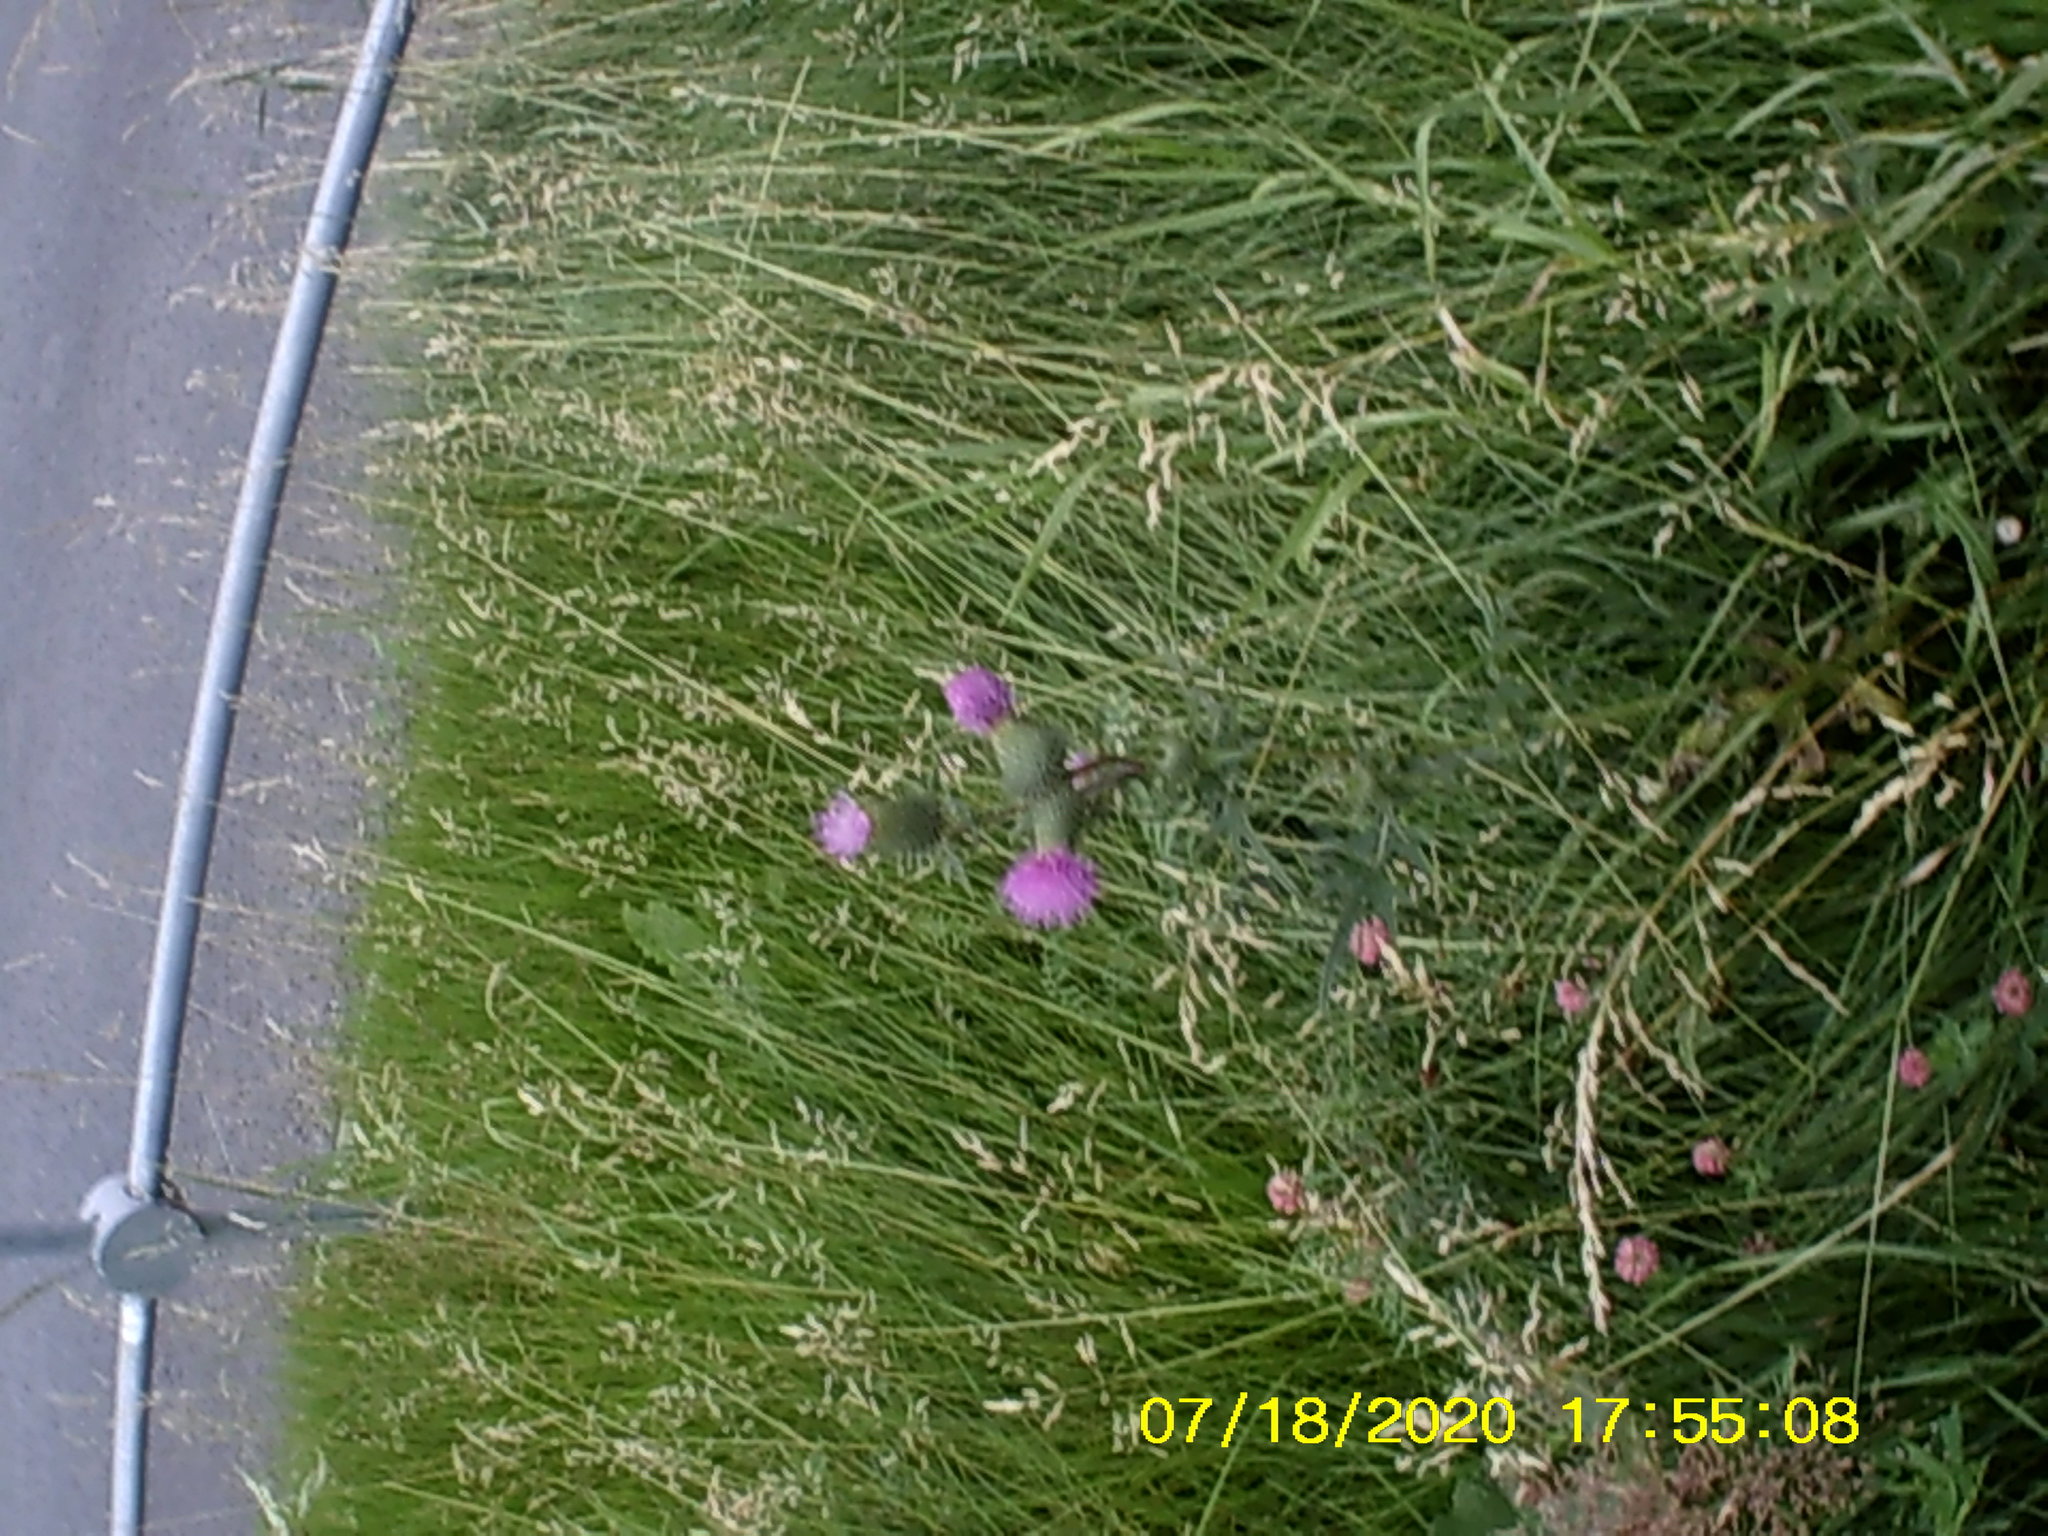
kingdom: Plantae
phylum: Tracheophyta
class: Magnoliopsida
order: Asterales
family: Asteraceae
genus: Cirsium
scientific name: Cirsium vulgare
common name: Bull thistle
